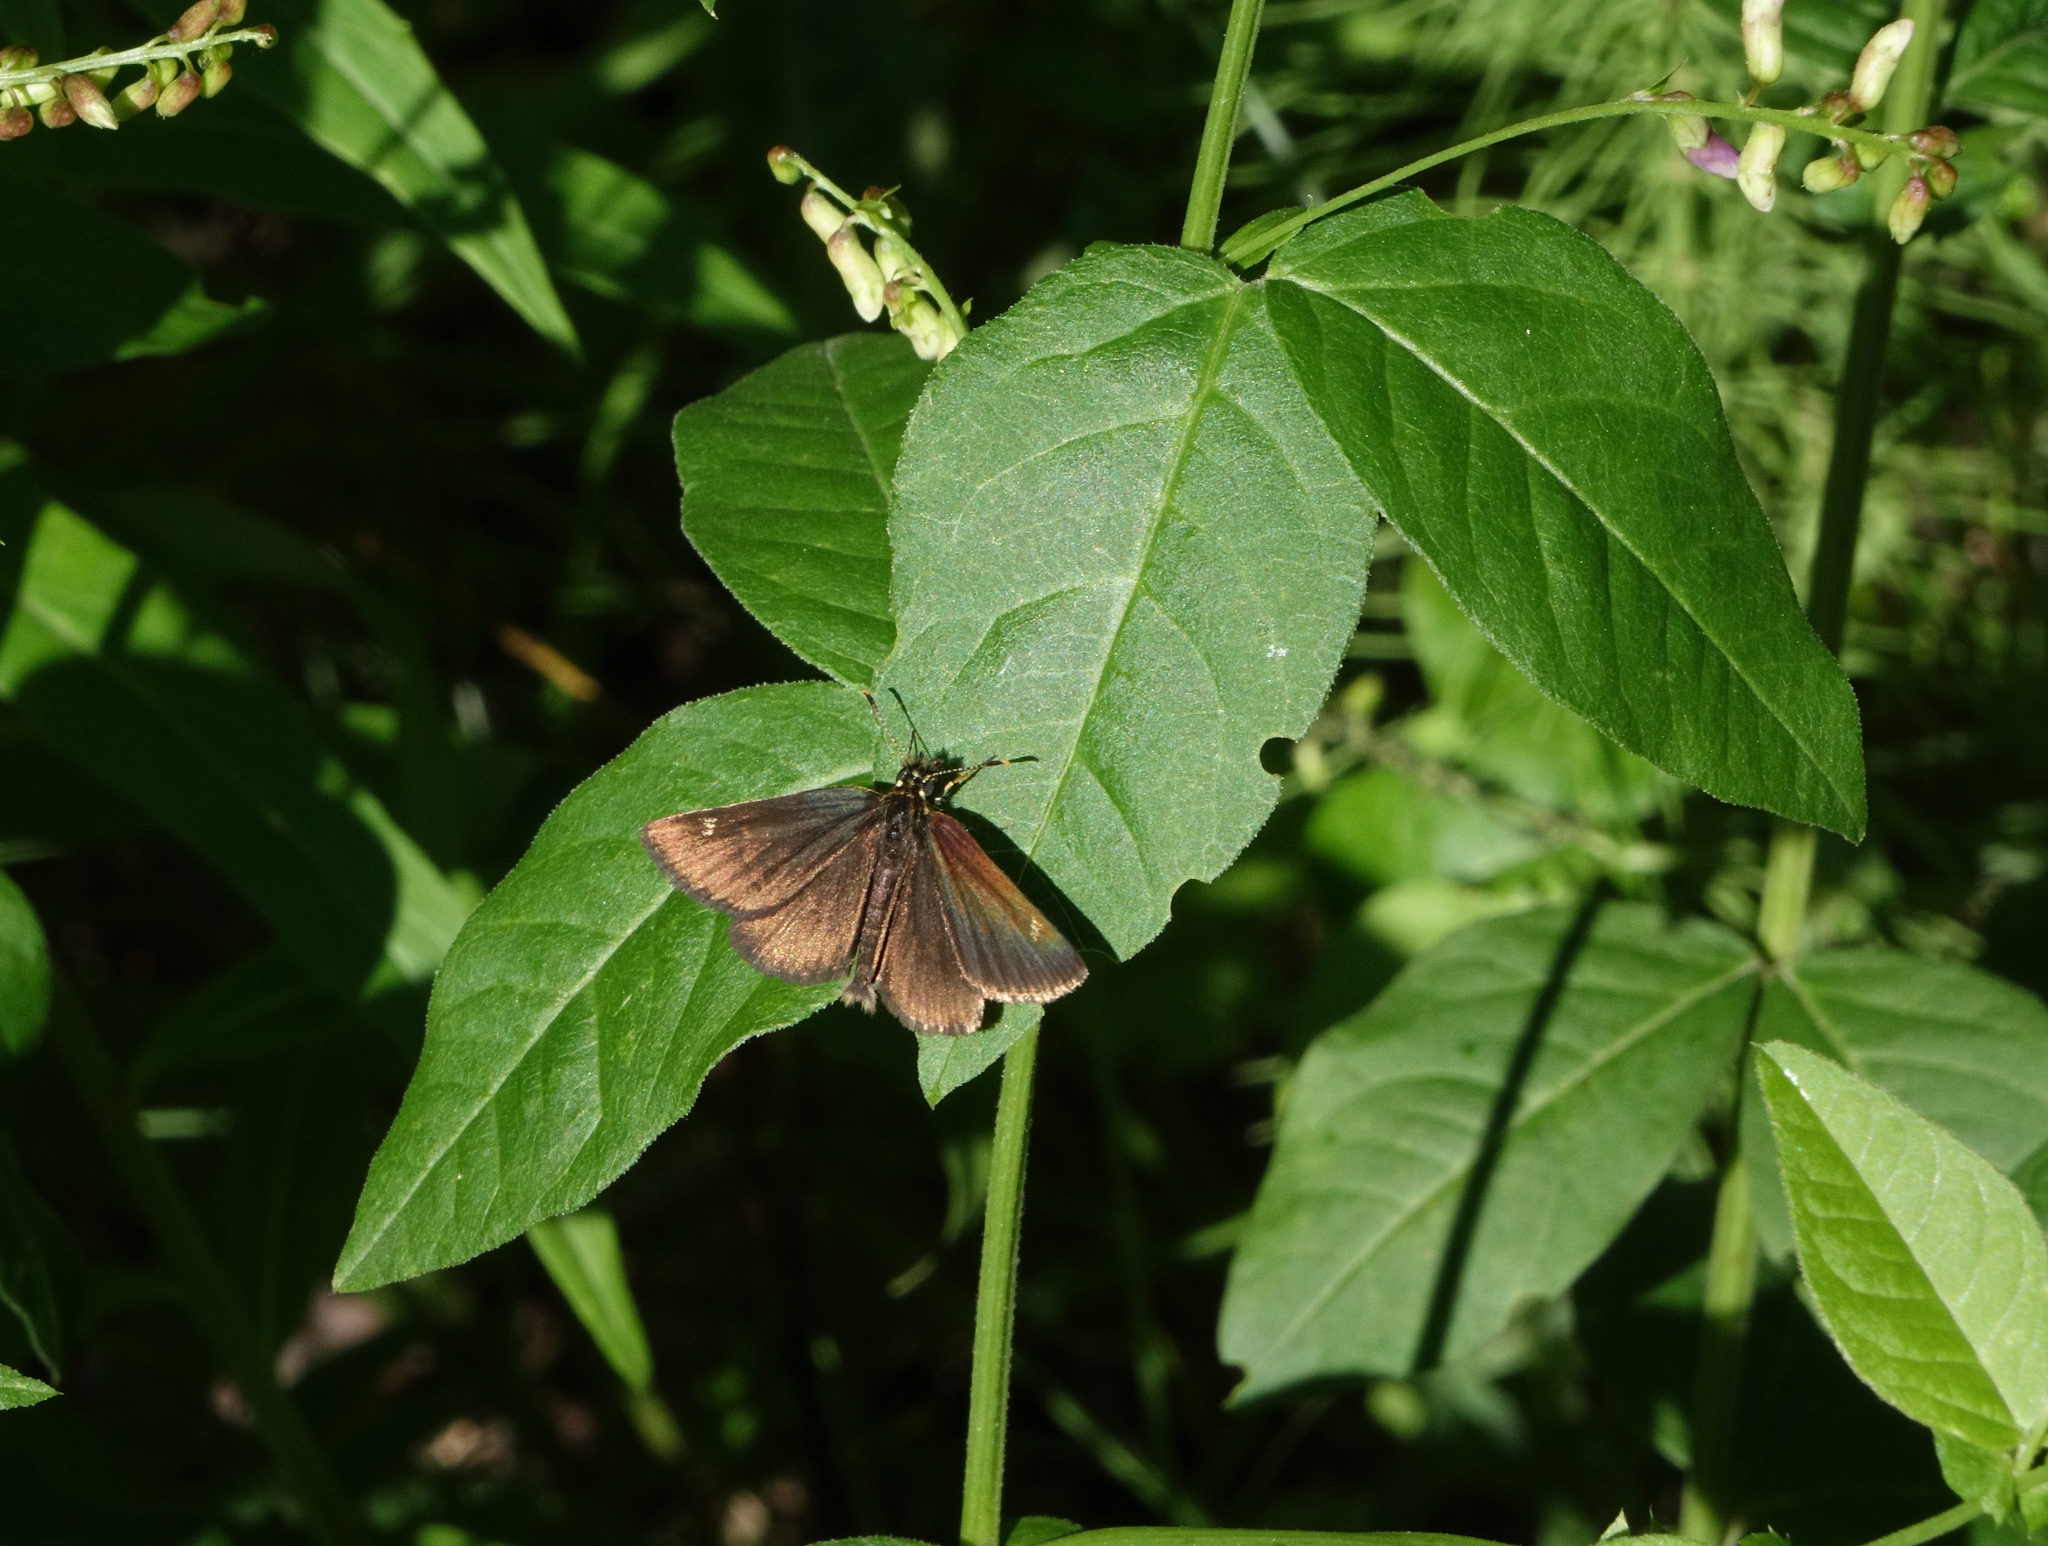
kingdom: Animalia
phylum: Arthropoda
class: Insecta
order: Lepidoptera
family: Hesperiidae
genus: Heteropterus
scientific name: Heteropterus morpheus
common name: Large chequered skipper
